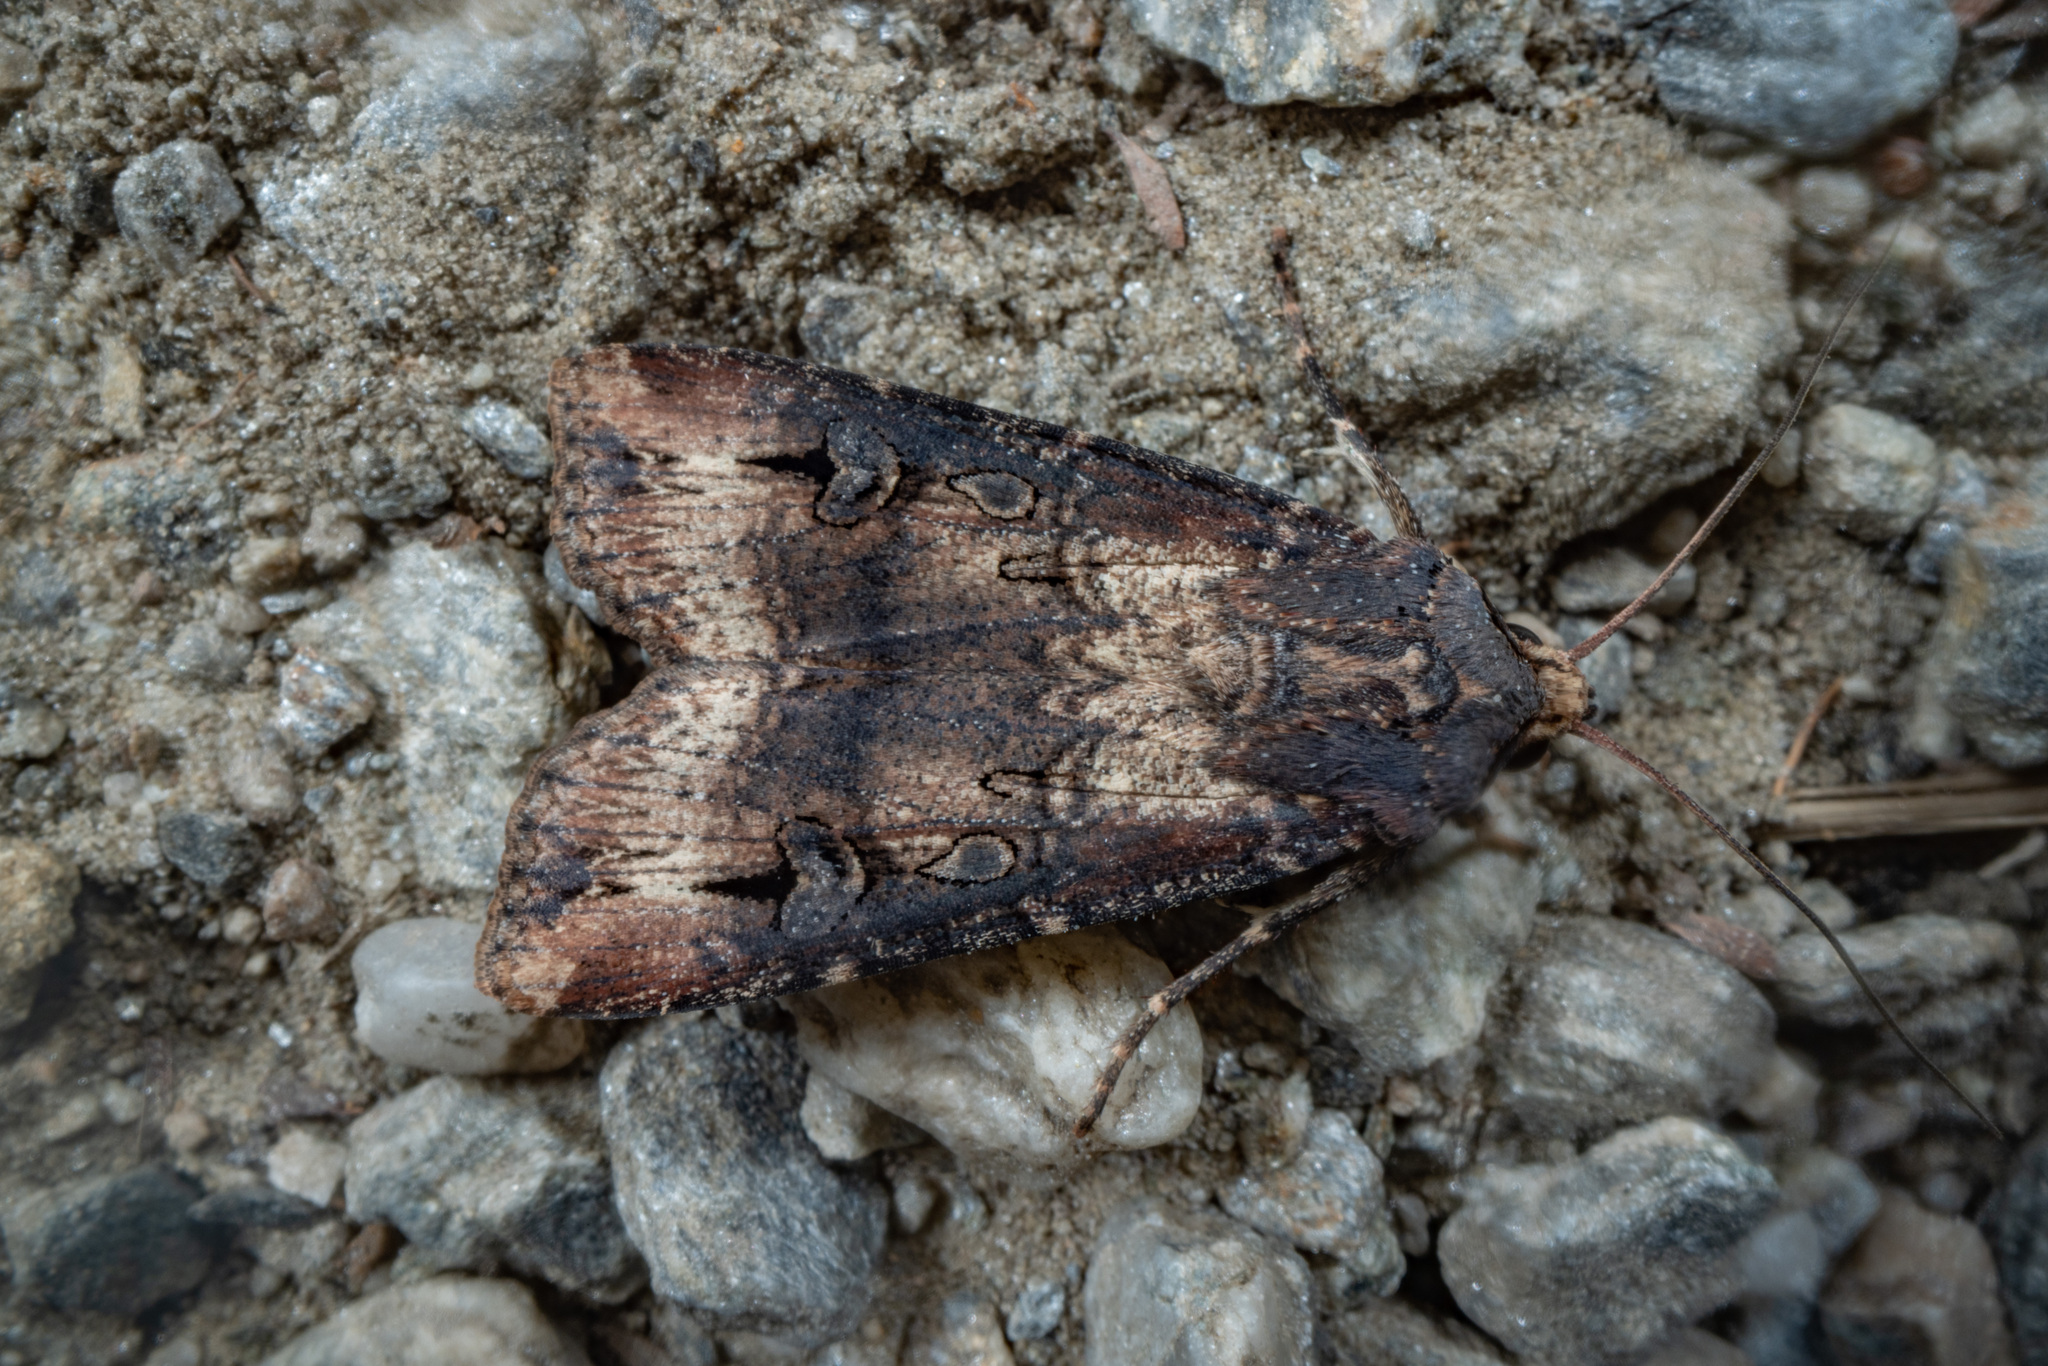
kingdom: Animalia
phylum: Arthropoda
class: Insecta
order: Lepidoptera
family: Noctuidae
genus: Agrotis
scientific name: Agrotis ipsilon
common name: Dark sword-grass
